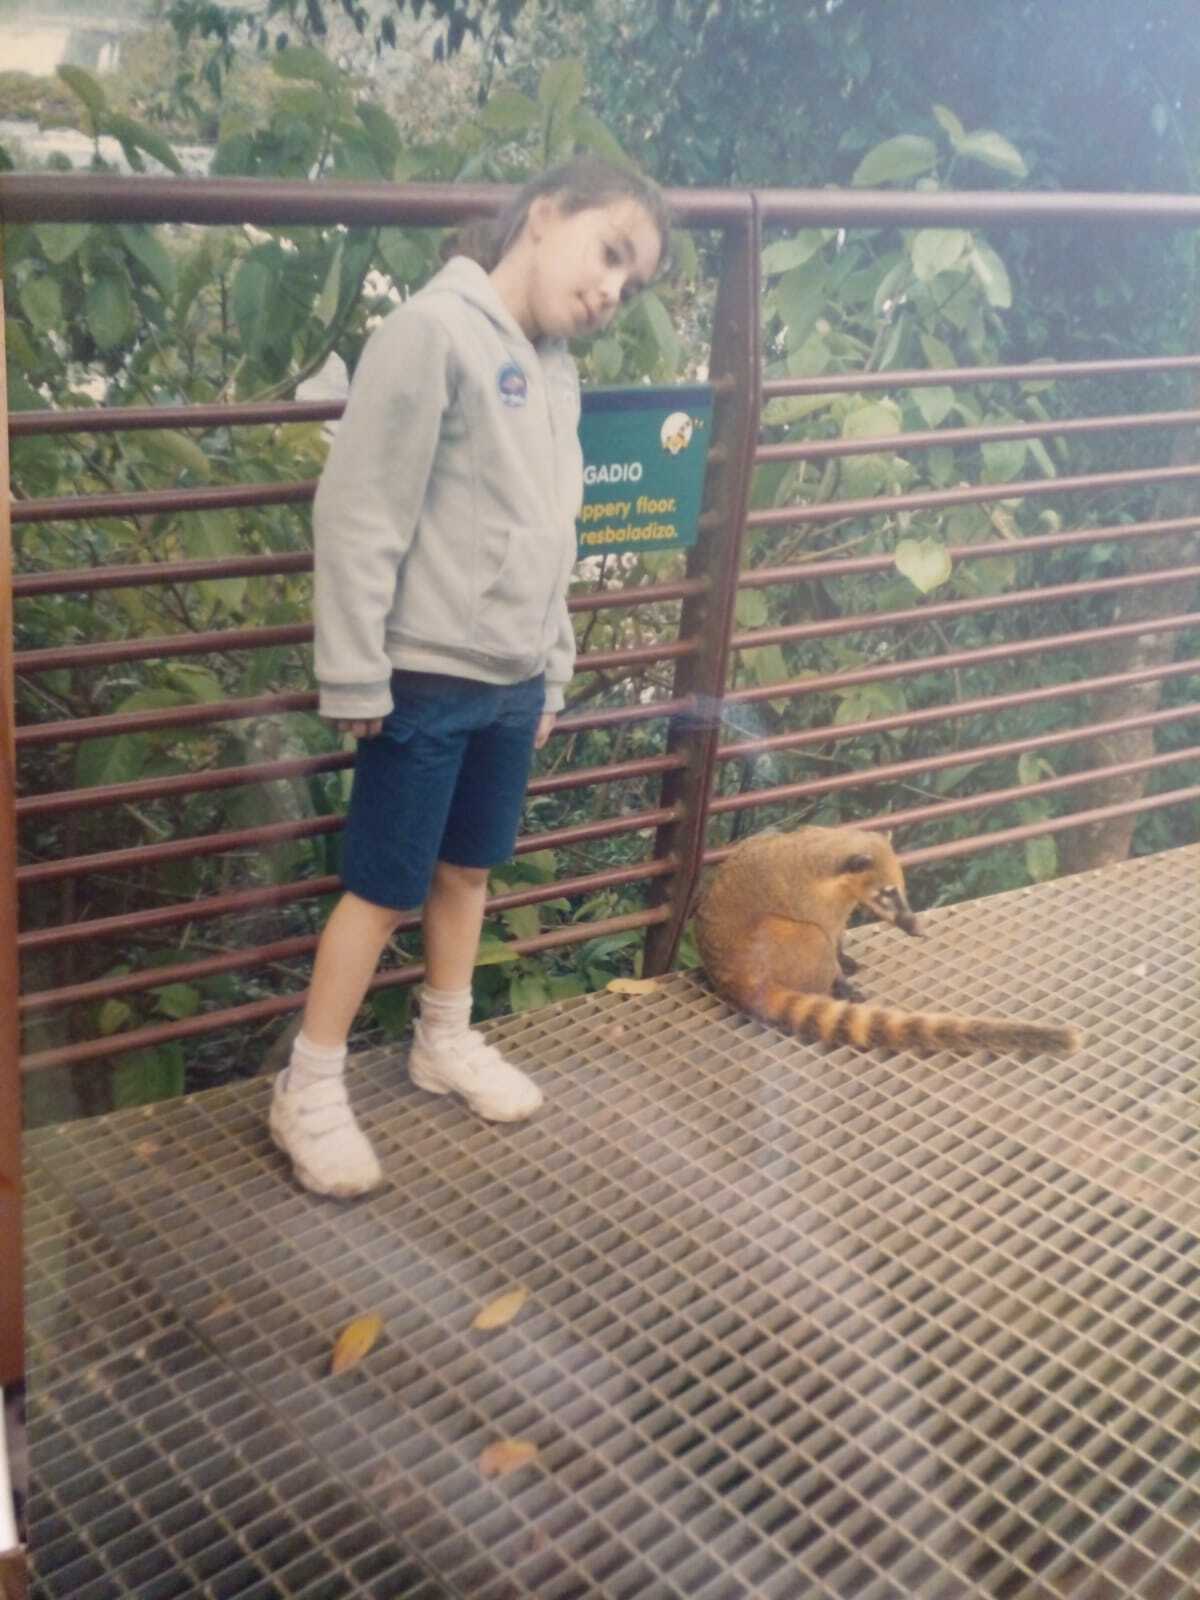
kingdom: Animalia
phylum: Chordata
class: Mammalia
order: Carnivora
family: Procyonidae
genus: Nasua
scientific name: Nasua nasua
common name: South american coati
